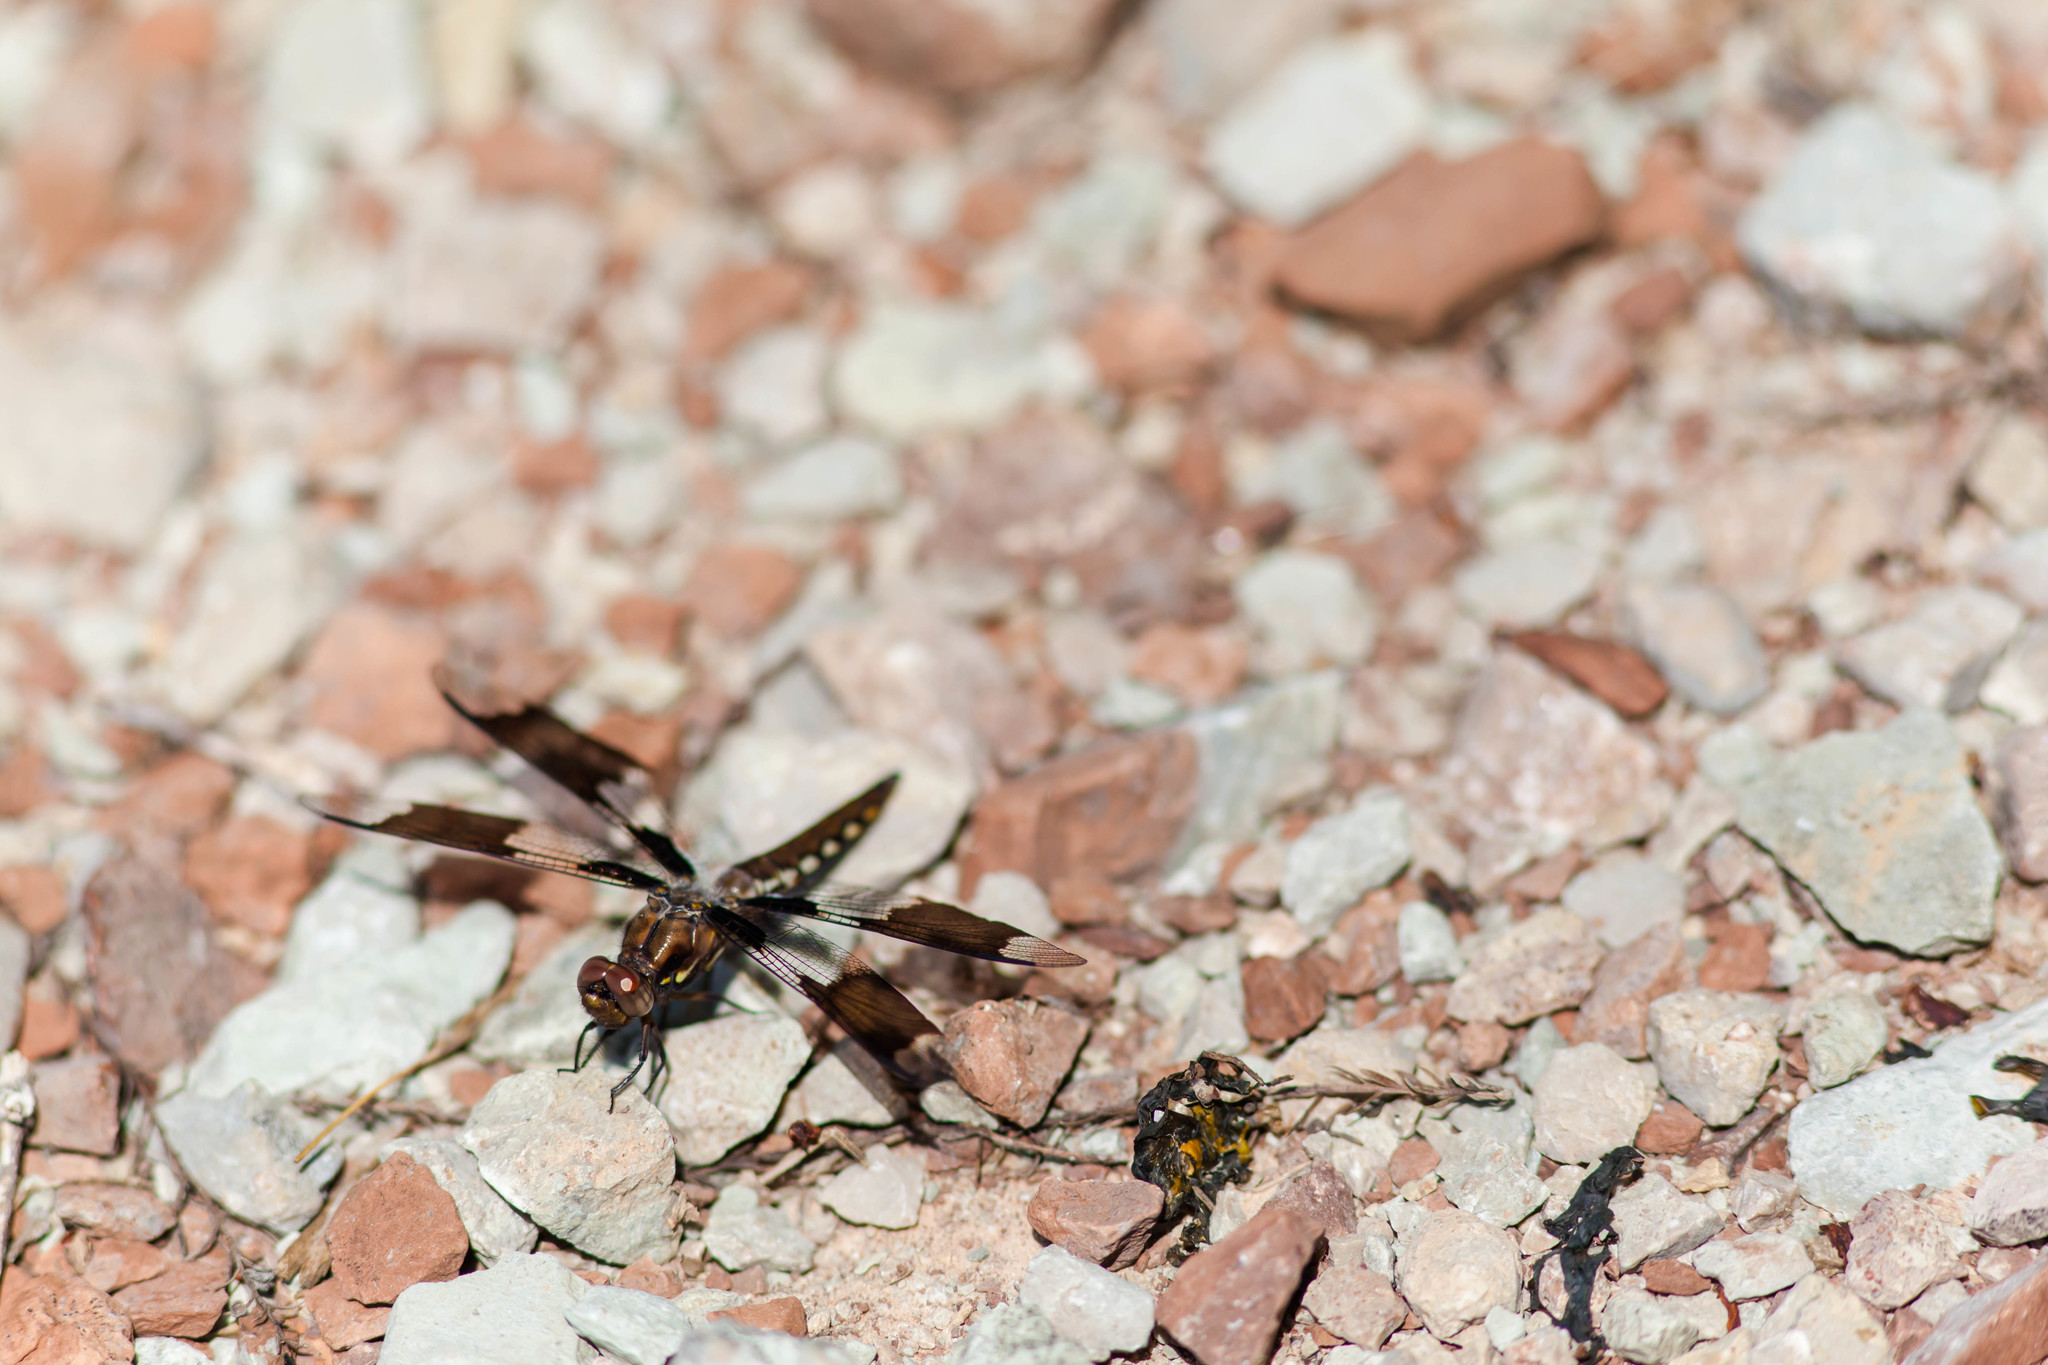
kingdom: Animalia
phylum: Arthropoda
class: Insecta
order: Odonata
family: Libellulidae
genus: Plathemis
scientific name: Plathemis lydia
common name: Common whitetail
